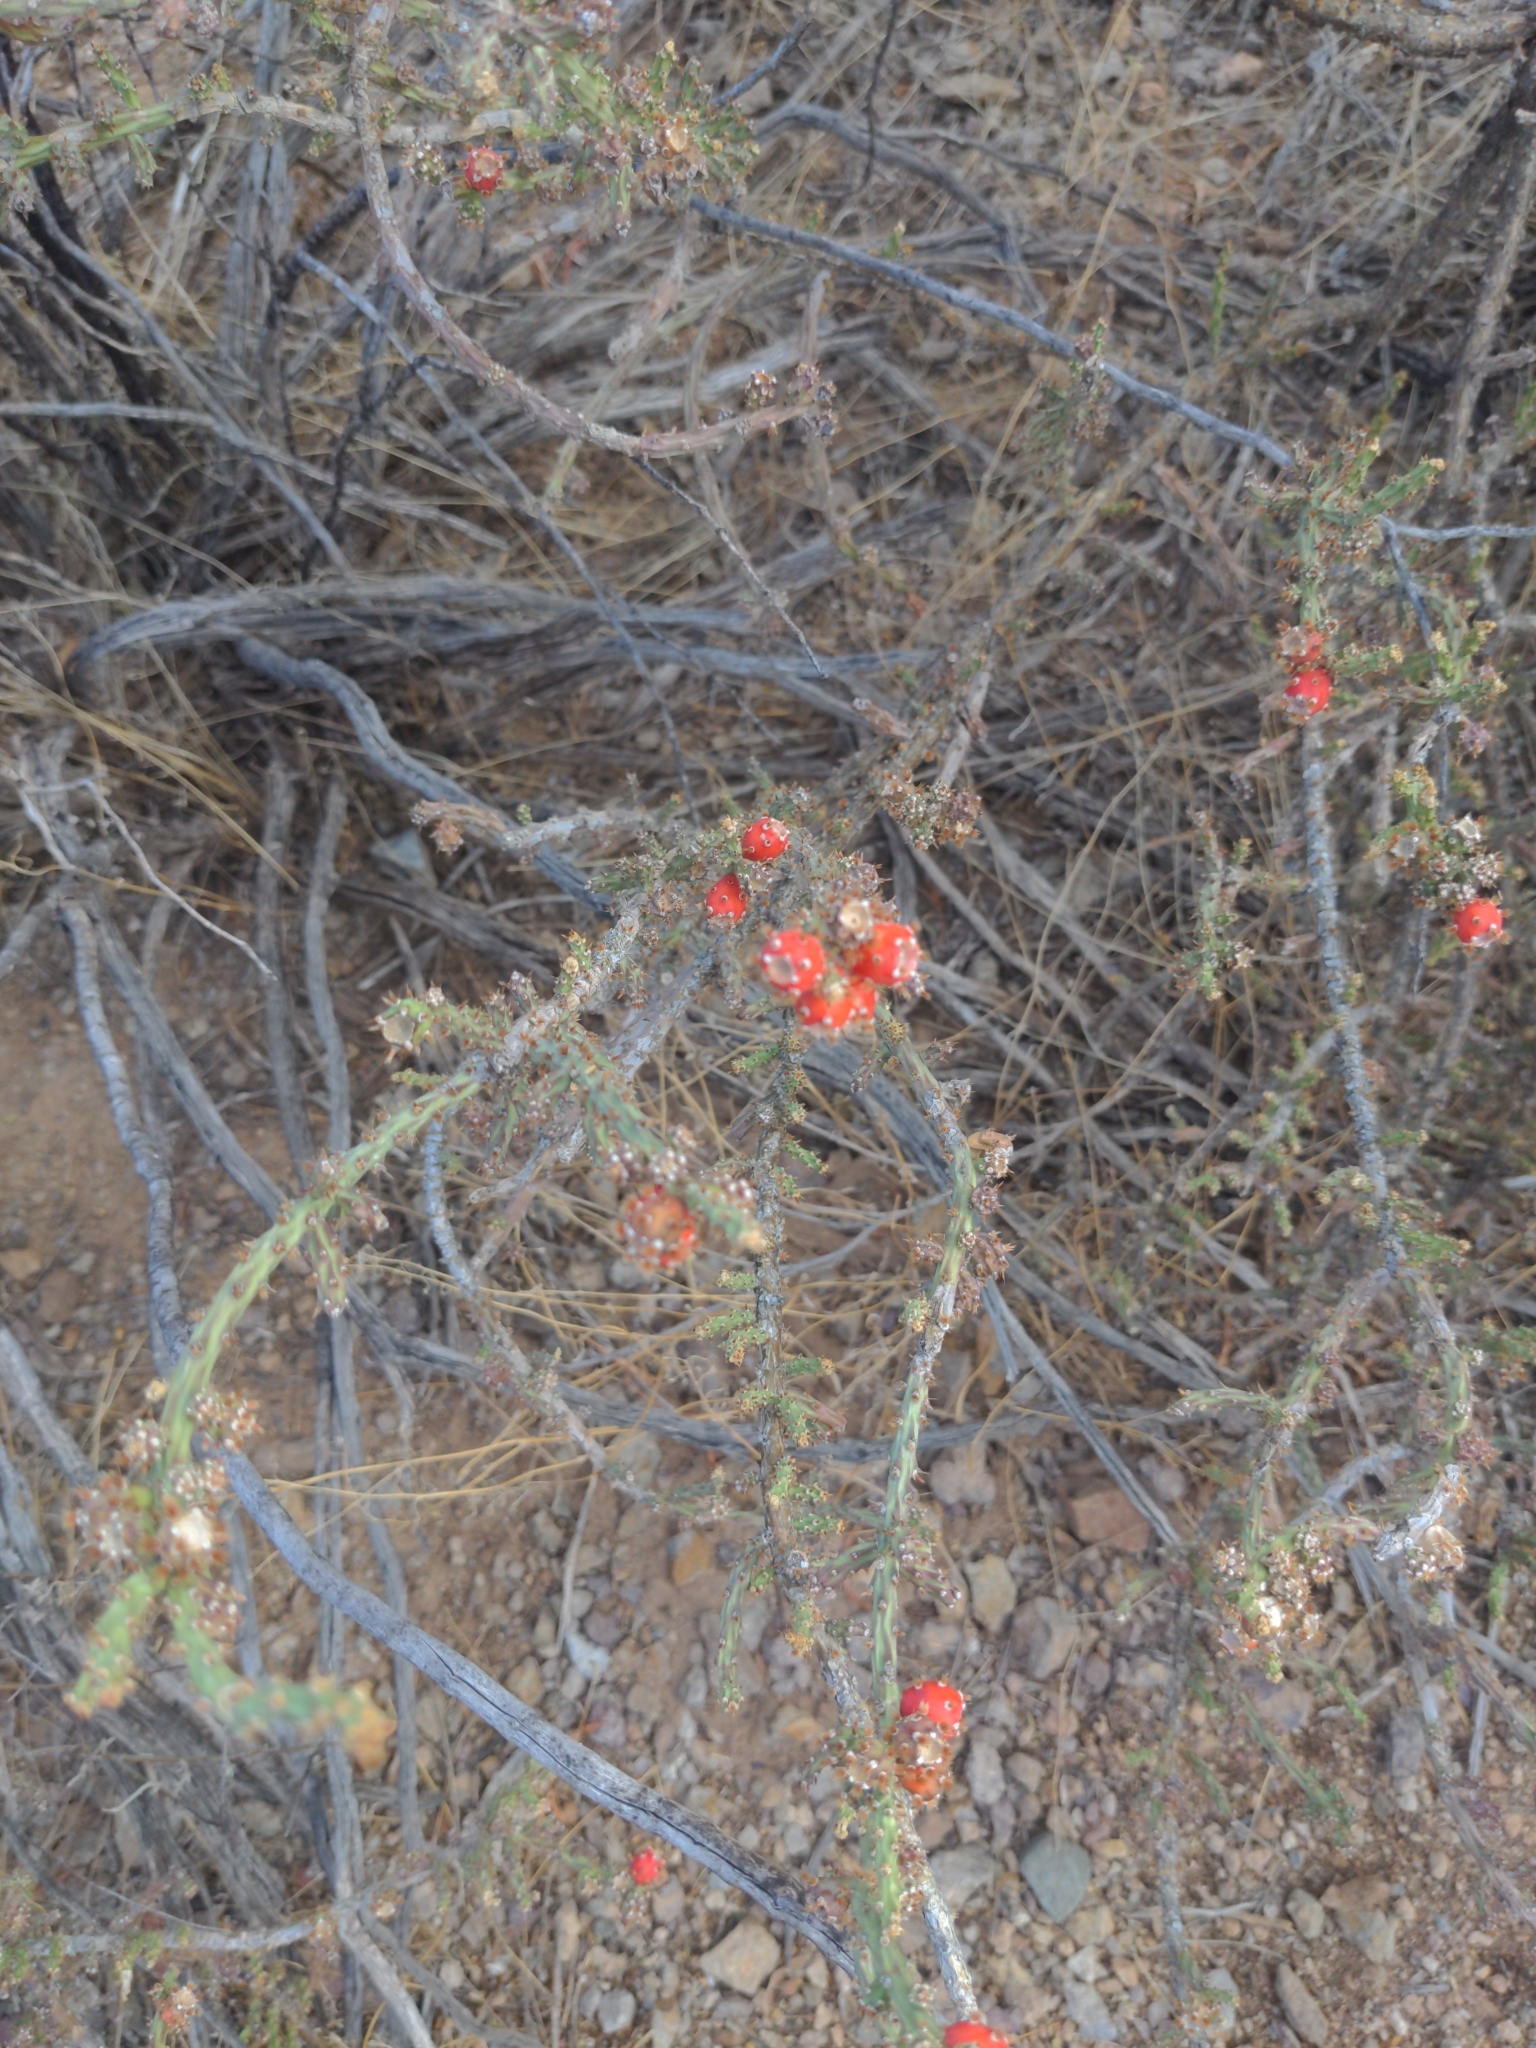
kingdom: Plantae
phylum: Tracheophyta
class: Magnoliopsida
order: Caryophyllales
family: Cactaceae
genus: Cylindropuntia
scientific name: Cylindropuntia leptocaulis
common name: Christmas cactus
